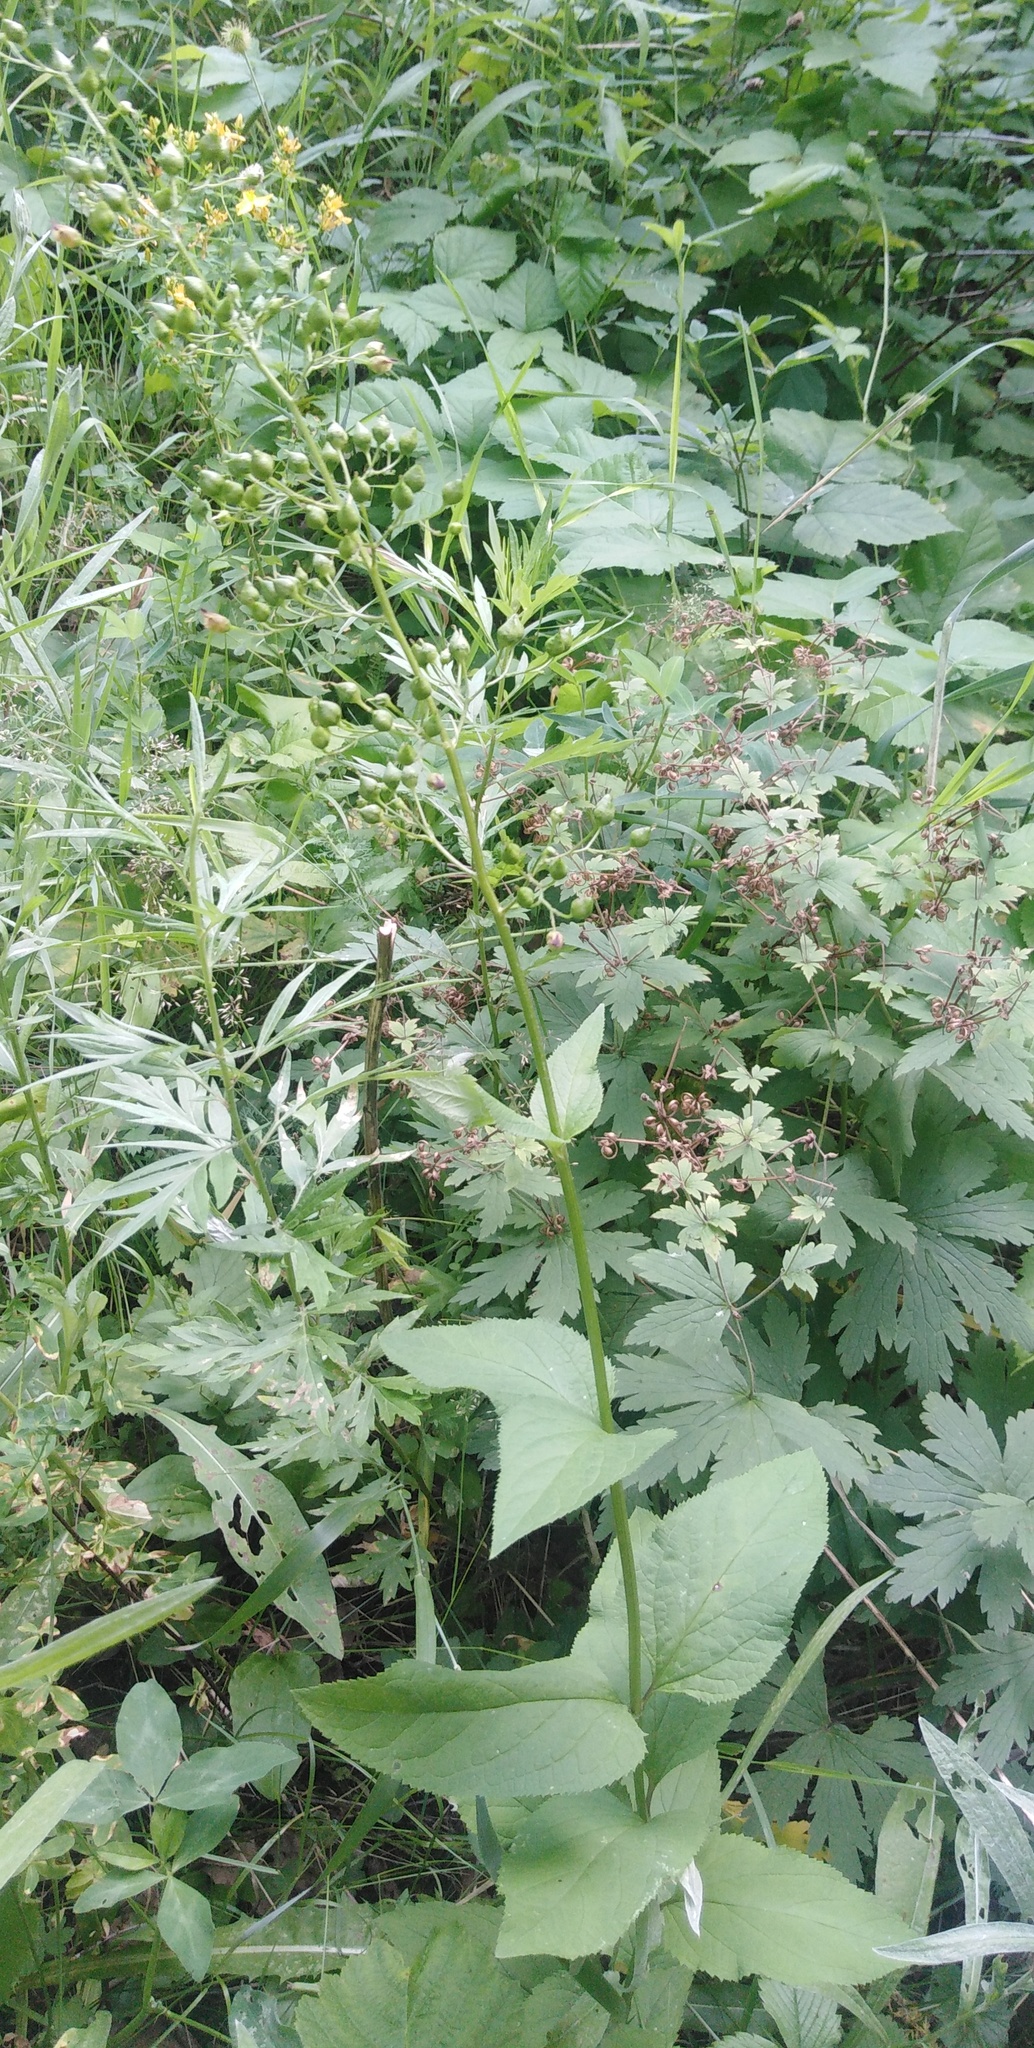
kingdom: Plantae
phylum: Tracheophyta
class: Magnoliopsida
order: Lamiales
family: Scrophulariaceae
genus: Scrophularia
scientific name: Scrophularia nodosa
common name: Common figwort
